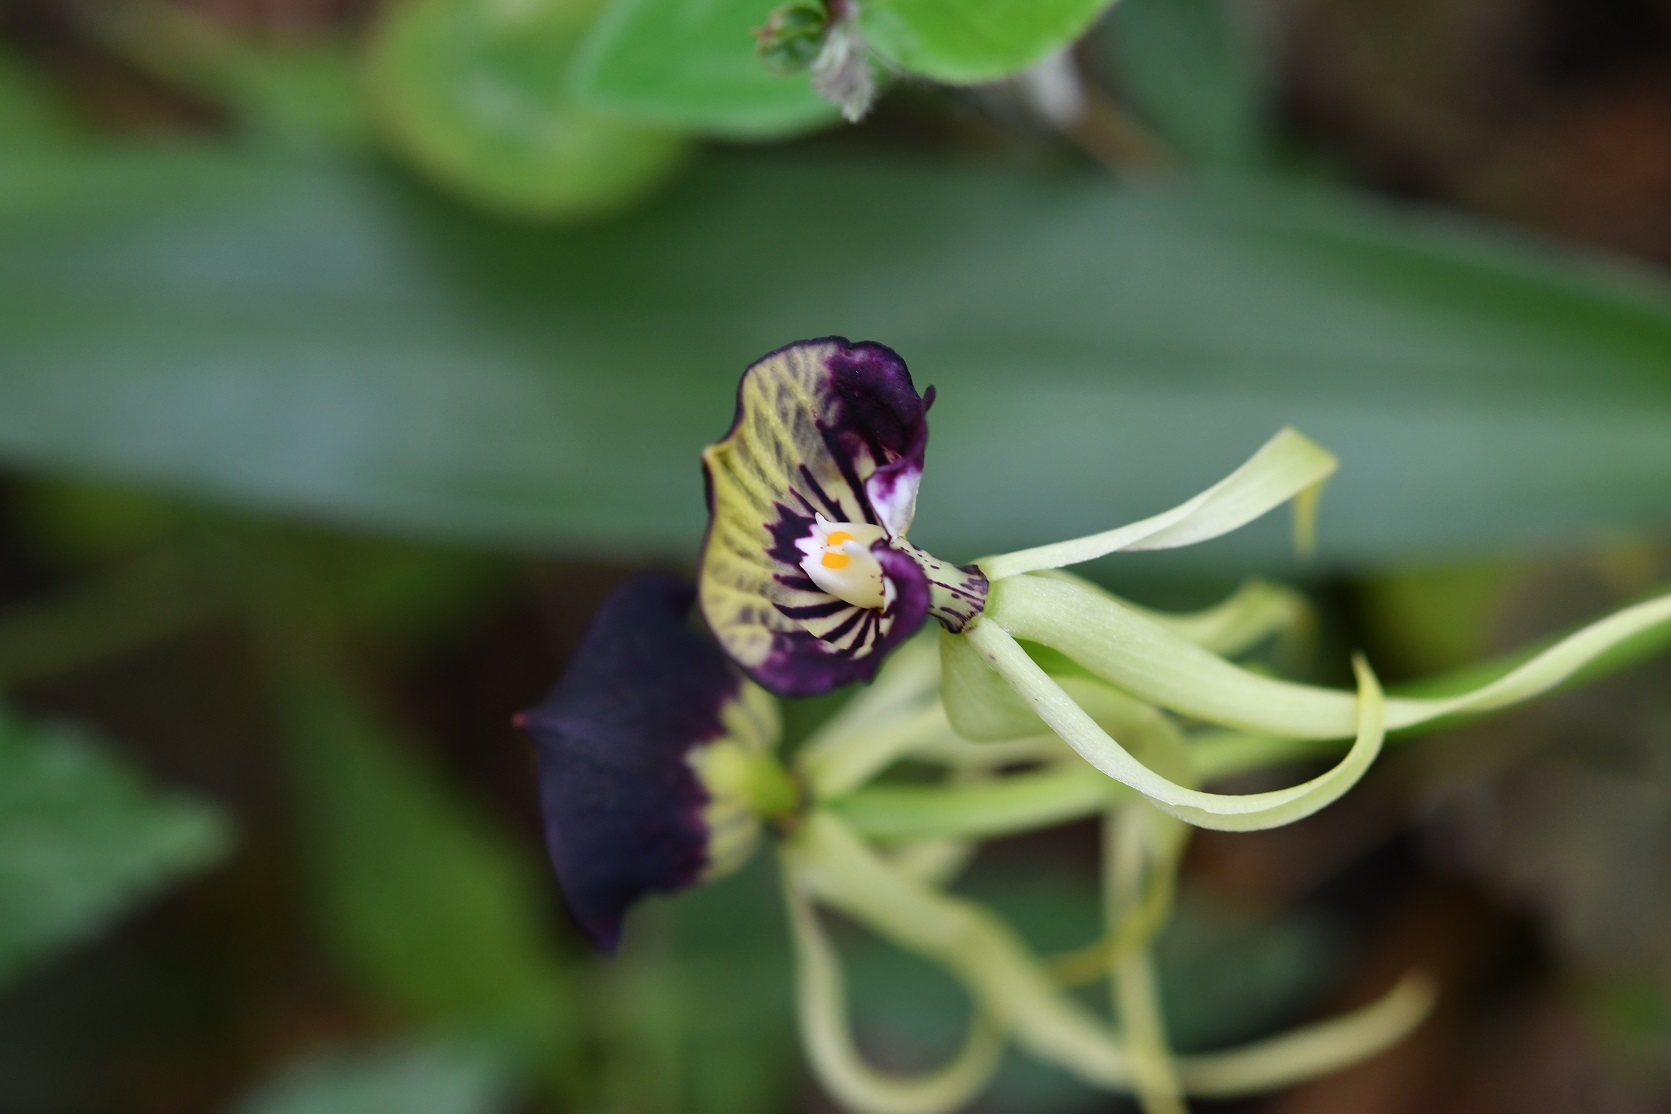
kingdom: Plantae
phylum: Tracheophyta
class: Liliopsida
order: Asparagales
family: Orchidaceae
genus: Prosthechea
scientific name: Prosthechea cochleata
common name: Clamshell orchid
